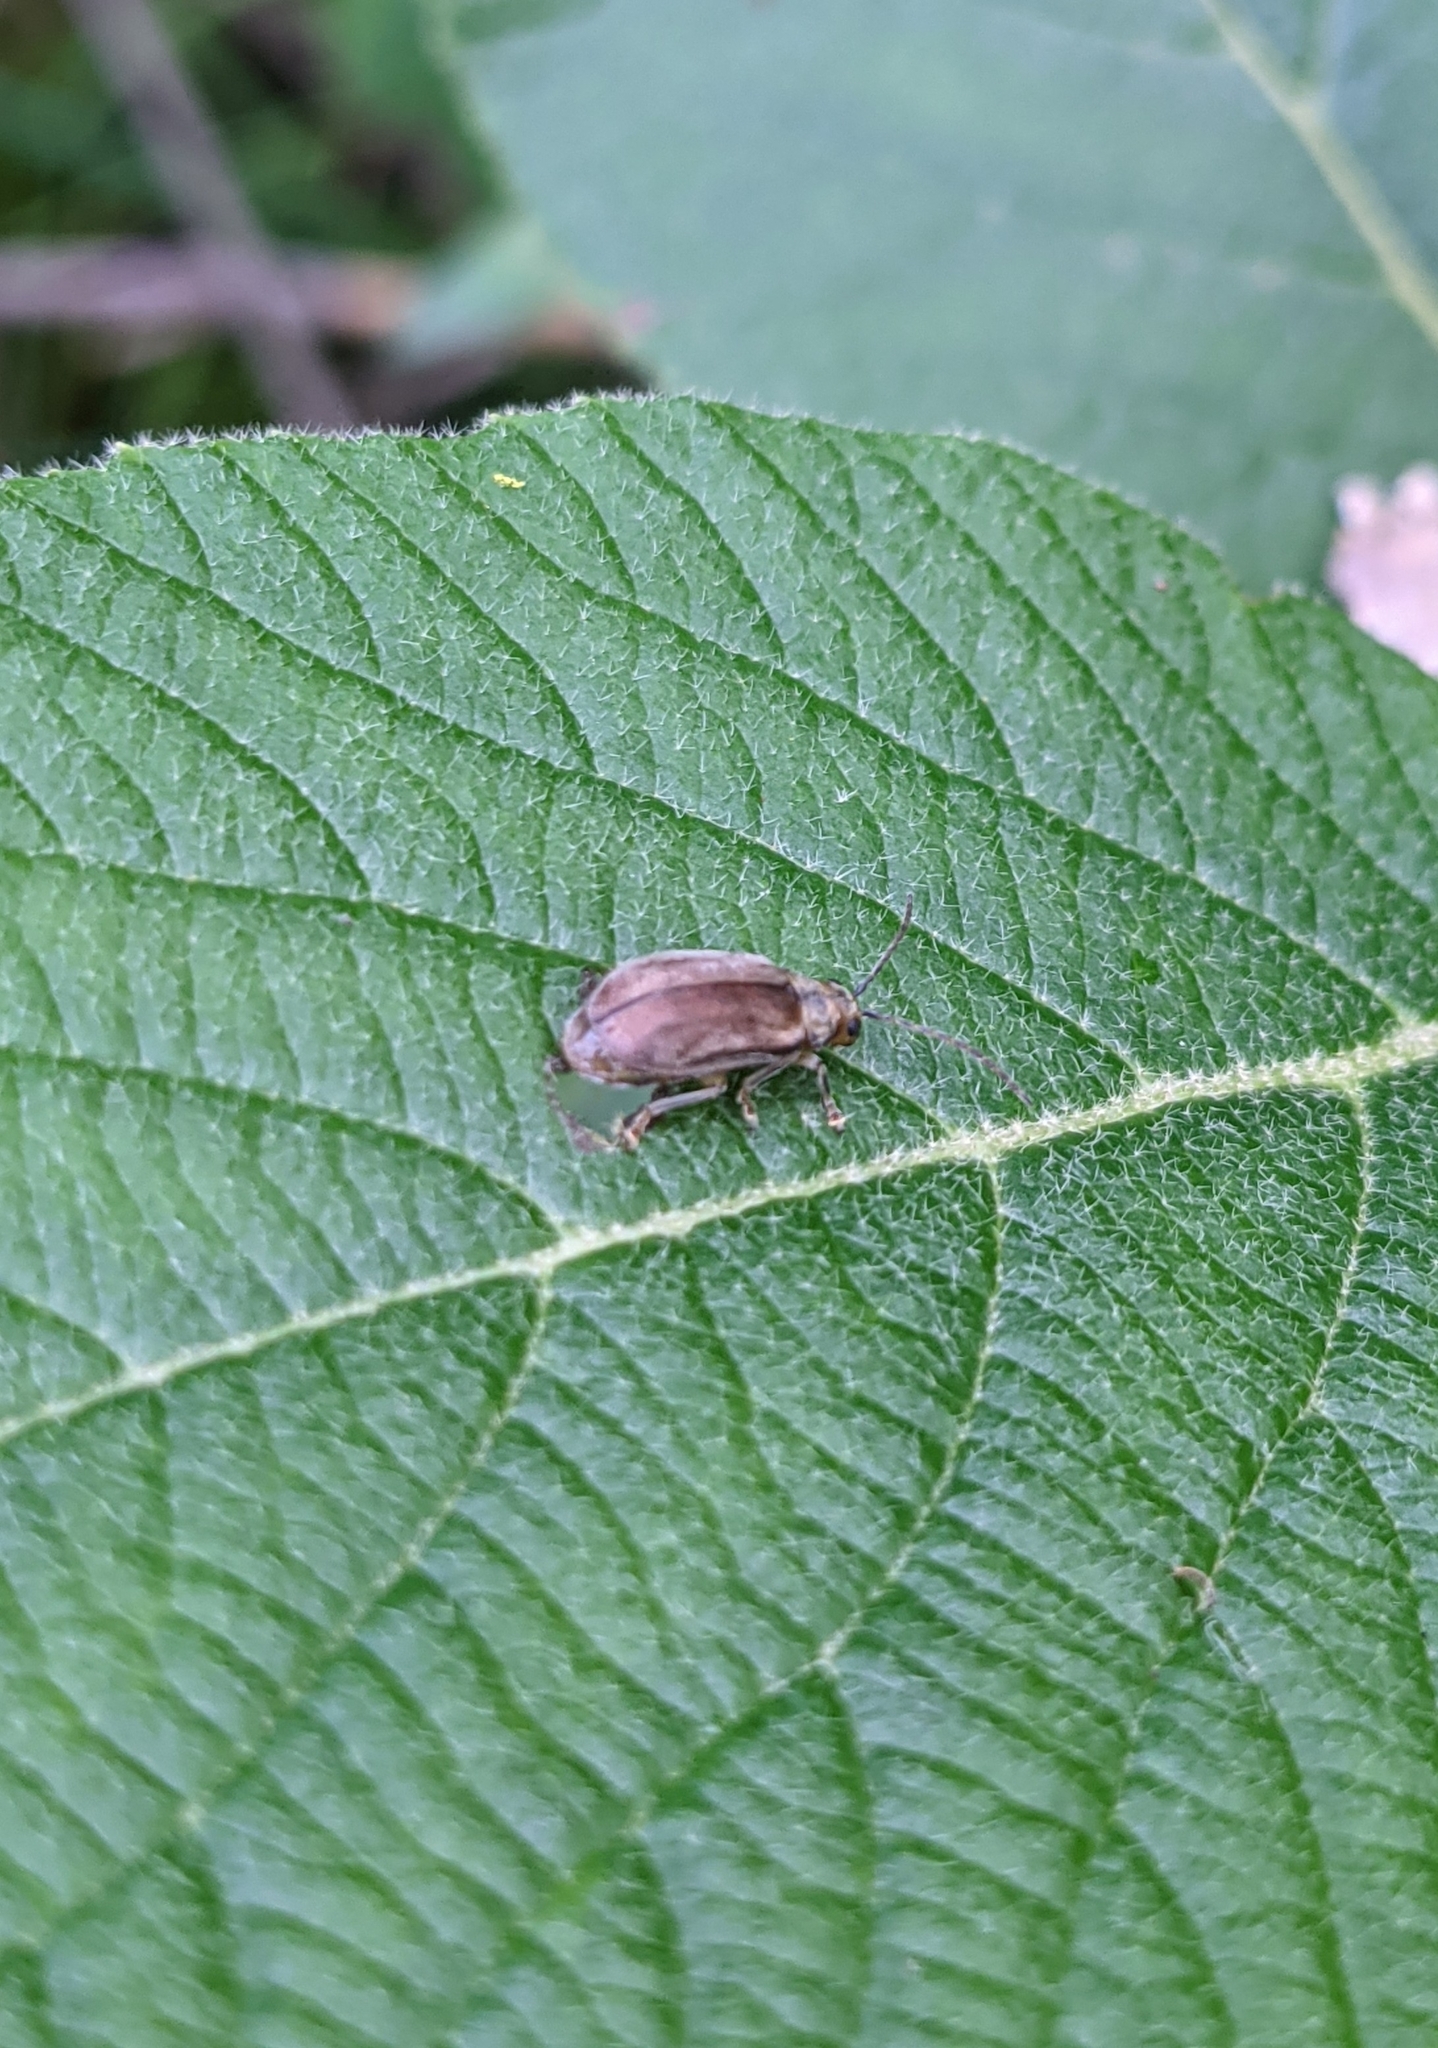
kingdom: Animalia
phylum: Arthropoda
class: Insecta
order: Coleoptera
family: Chrysomelidae
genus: Pyrrhalta
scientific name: Pyrrhalta viburni
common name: Guelder-rose leaf beetle
